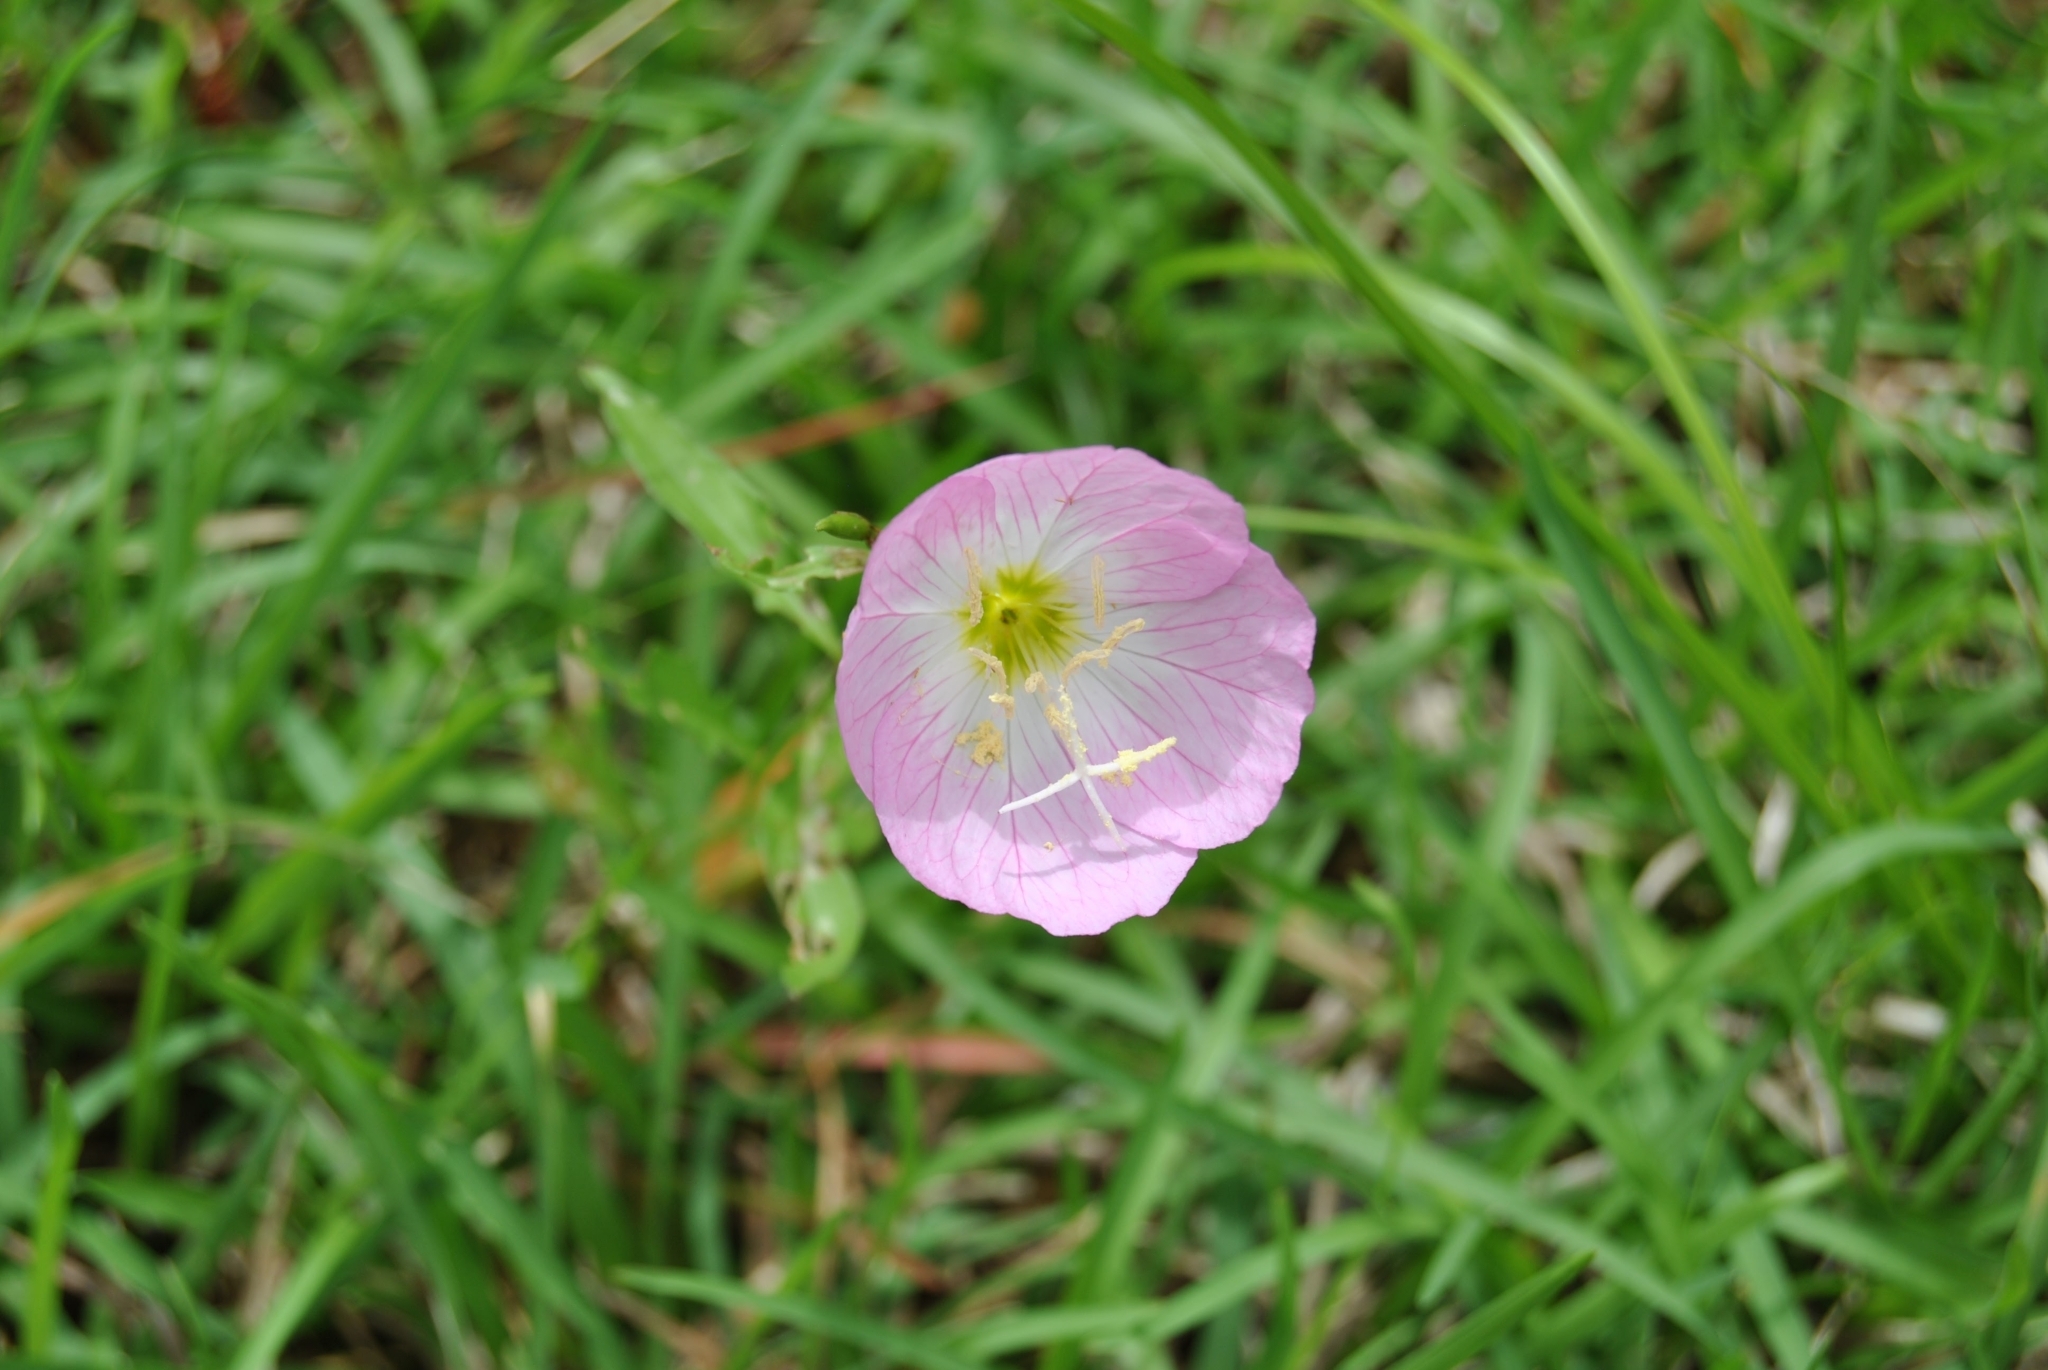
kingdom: Plantae
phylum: Tracheophyta
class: Magnoliopsida
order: Myrtales
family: Onagraceae
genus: Oenothera
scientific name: Oenothera speciosa
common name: White evening-primrose
